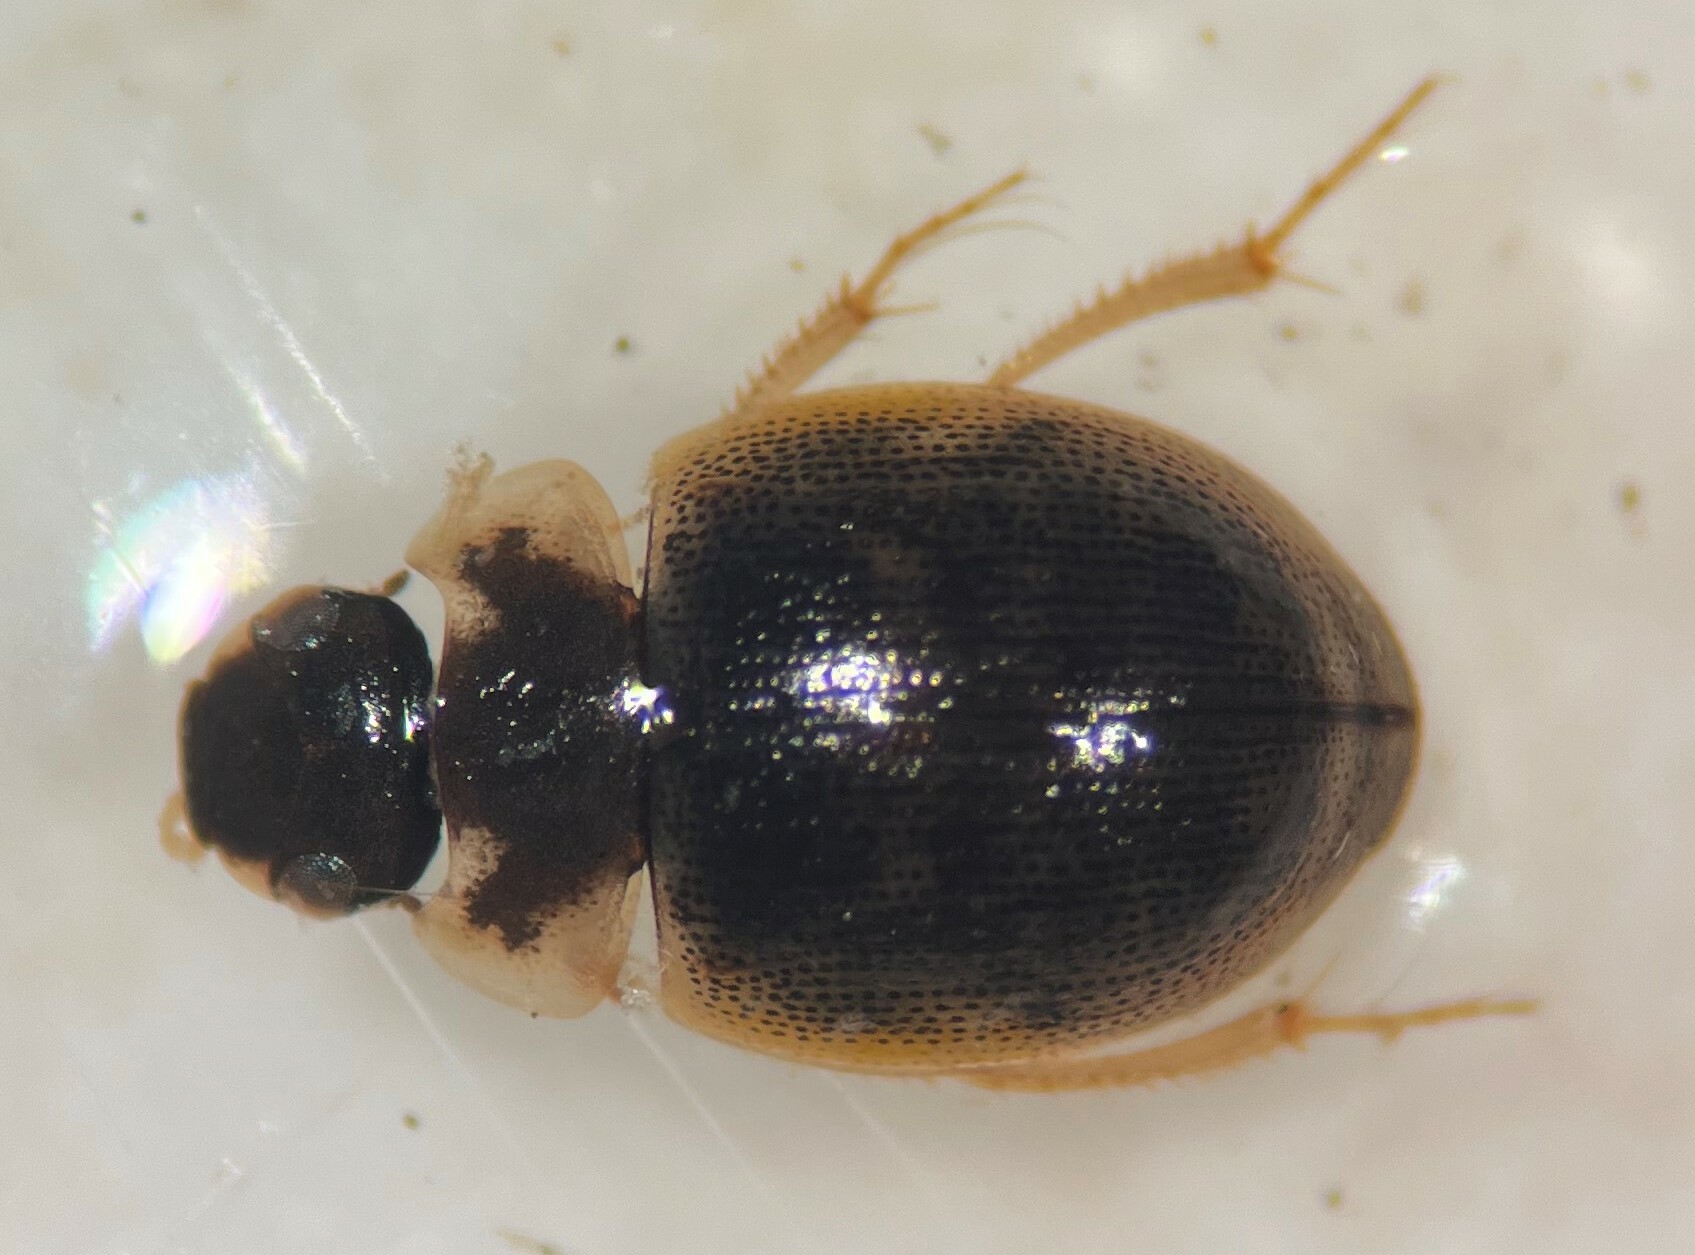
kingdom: Animalia
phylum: Arthropoda
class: Insecta
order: Coleoptera
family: Hydrophilidae
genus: Laccobius
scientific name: Laccobius minutoides
